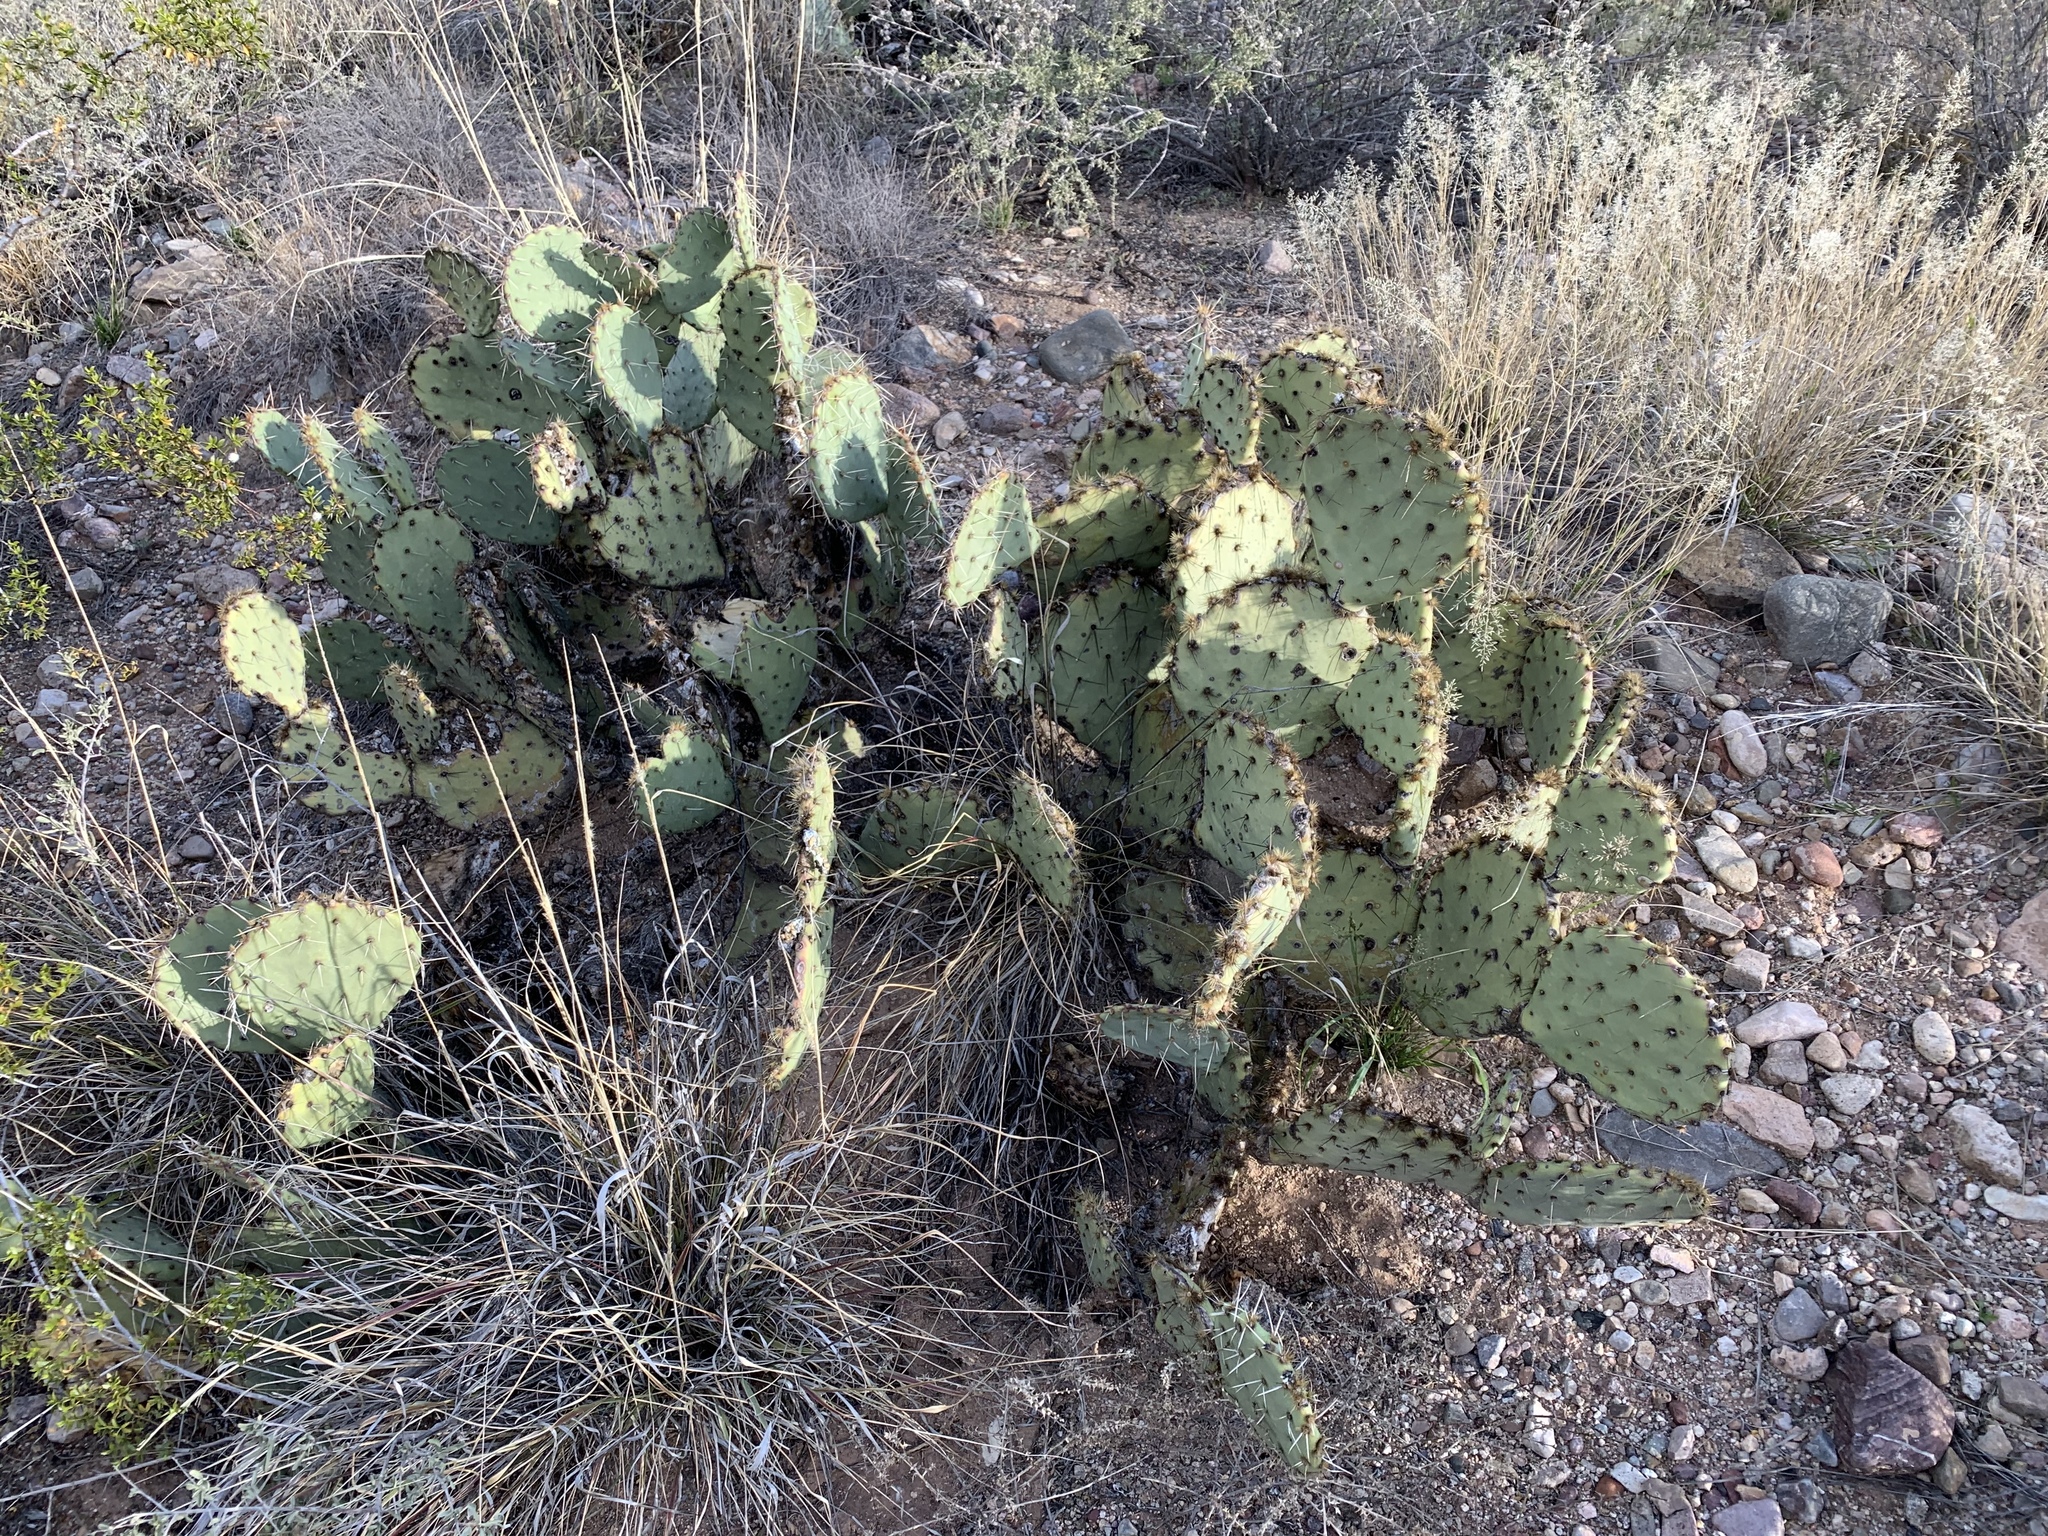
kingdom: Plantae
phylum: Tracheophyta
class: Magnoliopsida
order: Caryophyllales
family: Cactaceae
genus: Opuntia
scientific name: Opuntia engelmannii
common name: Cactus-apple
